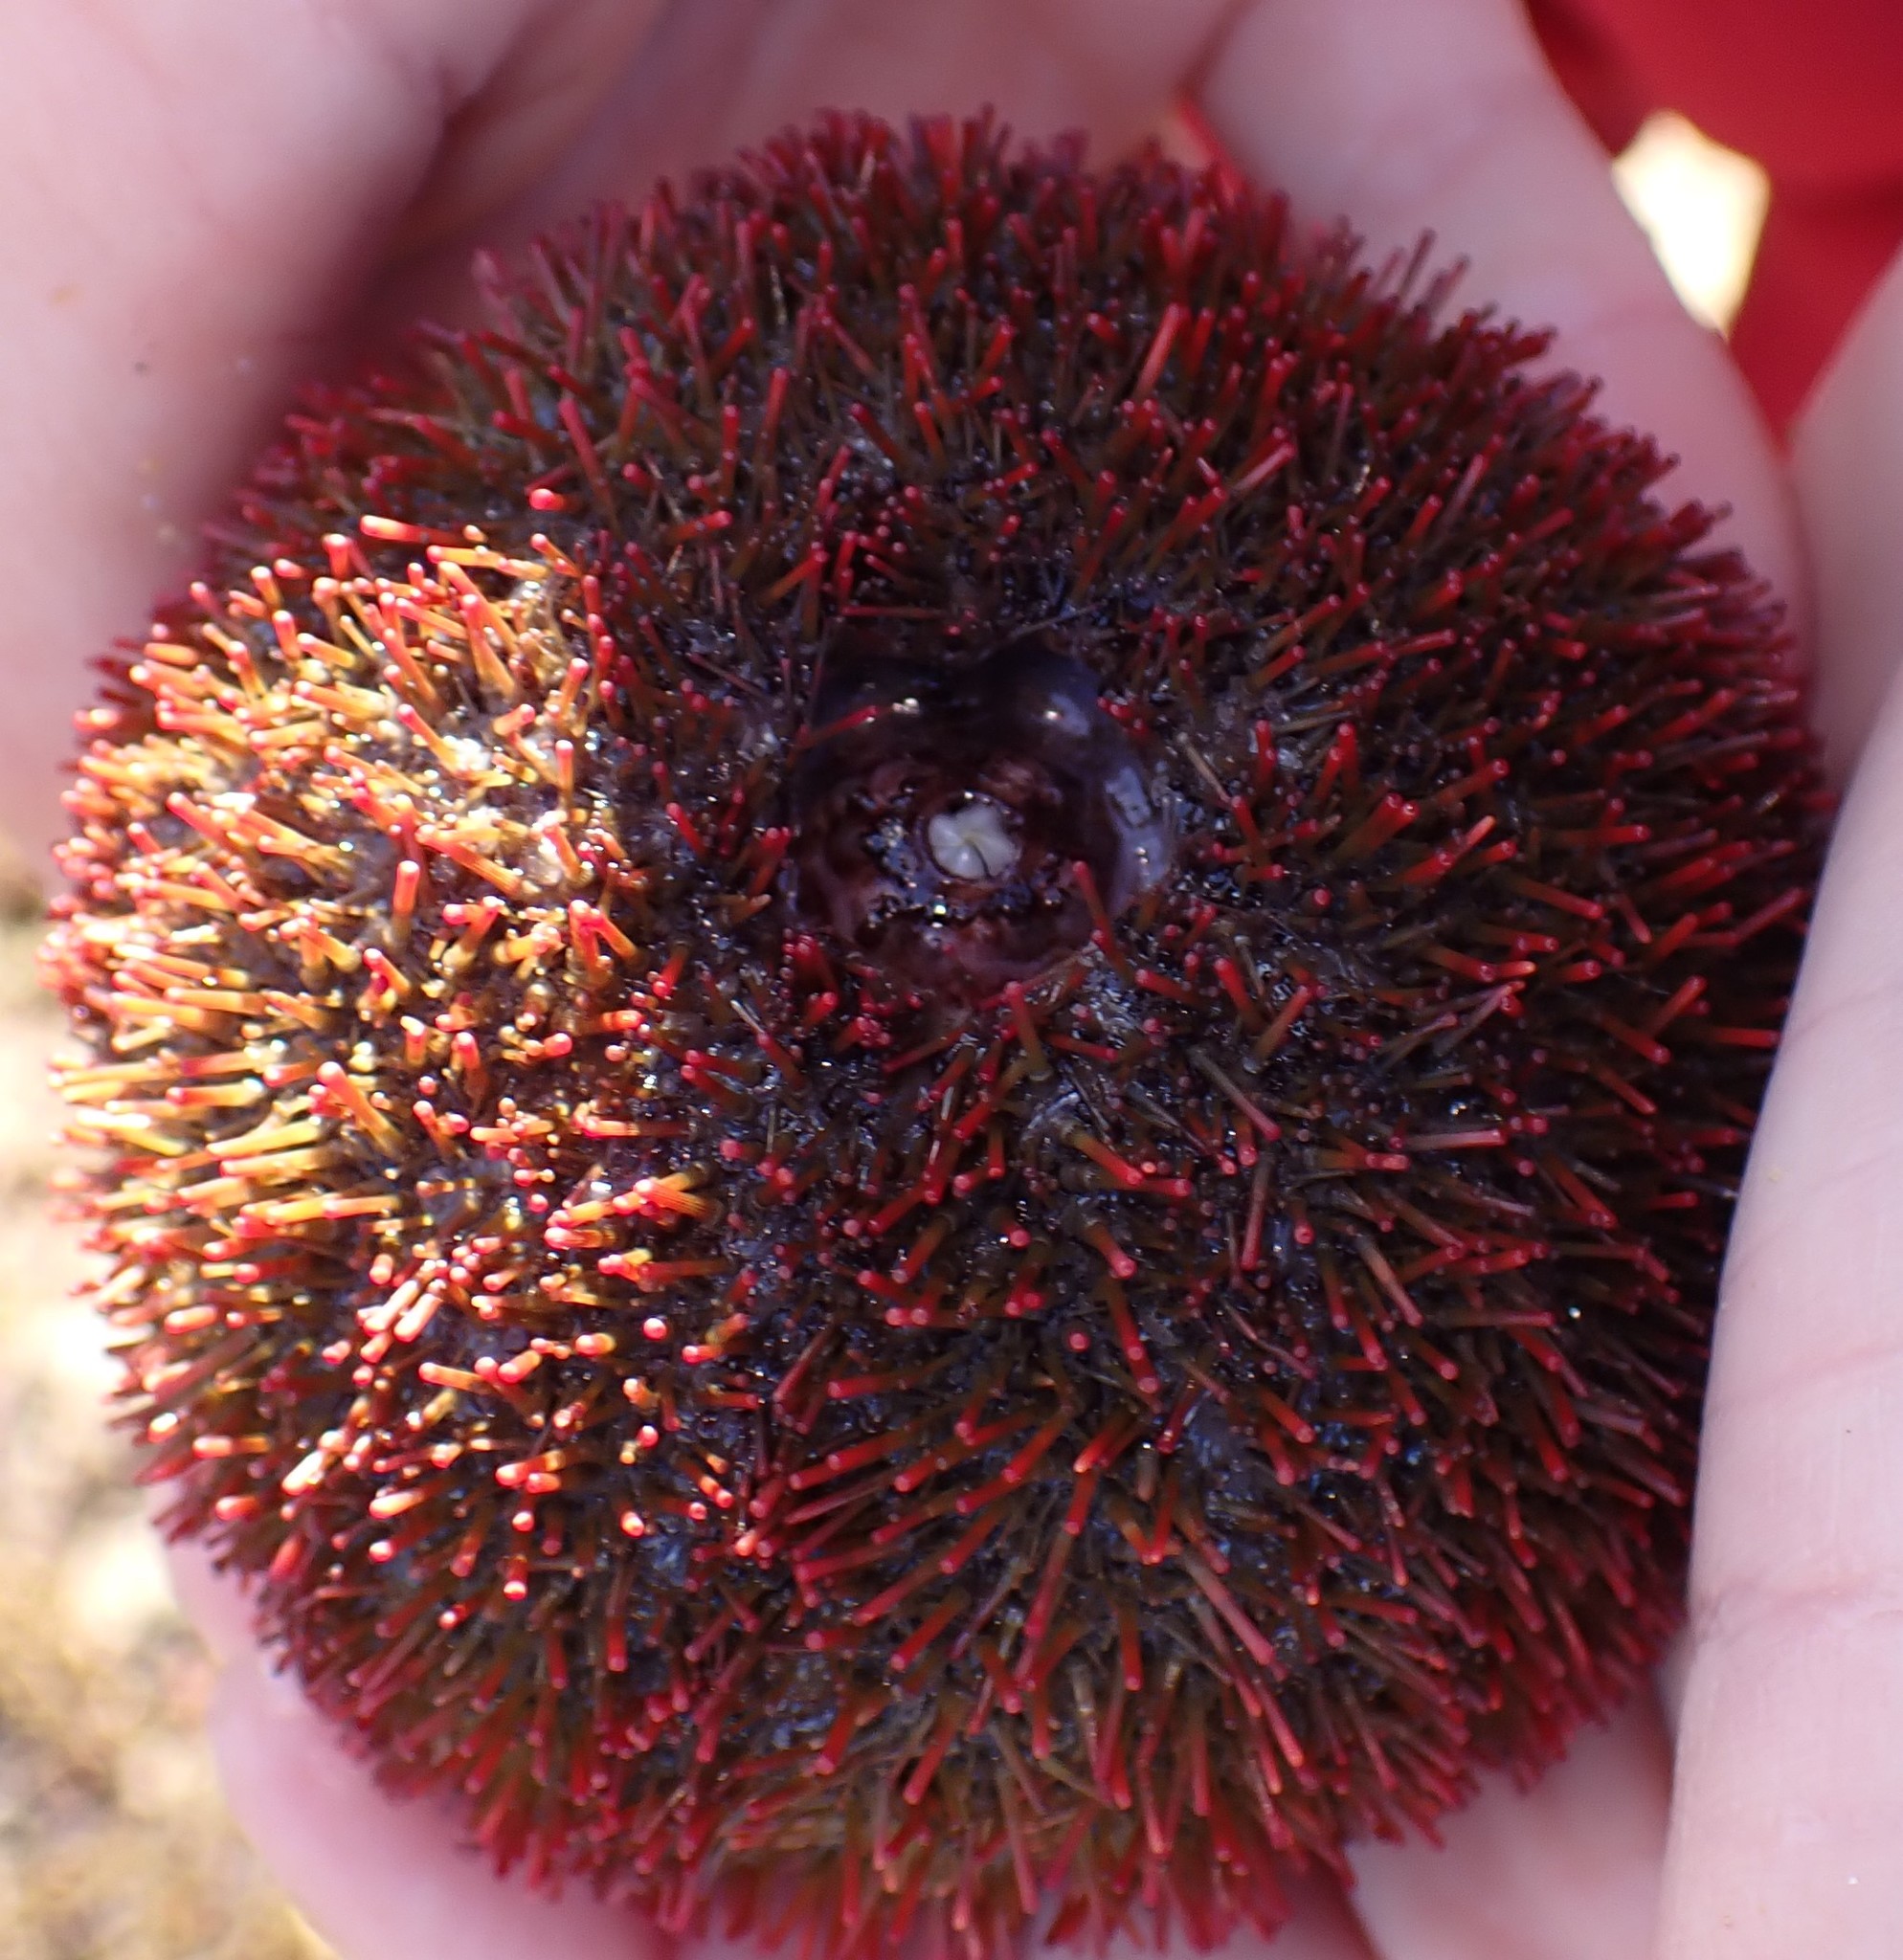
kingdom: Animalia
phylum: Echinodermata
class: Echinoidea
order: Camarodonta
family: Temnopleuridae
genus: Holopneustes
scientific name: Holopneustes porosissimus
